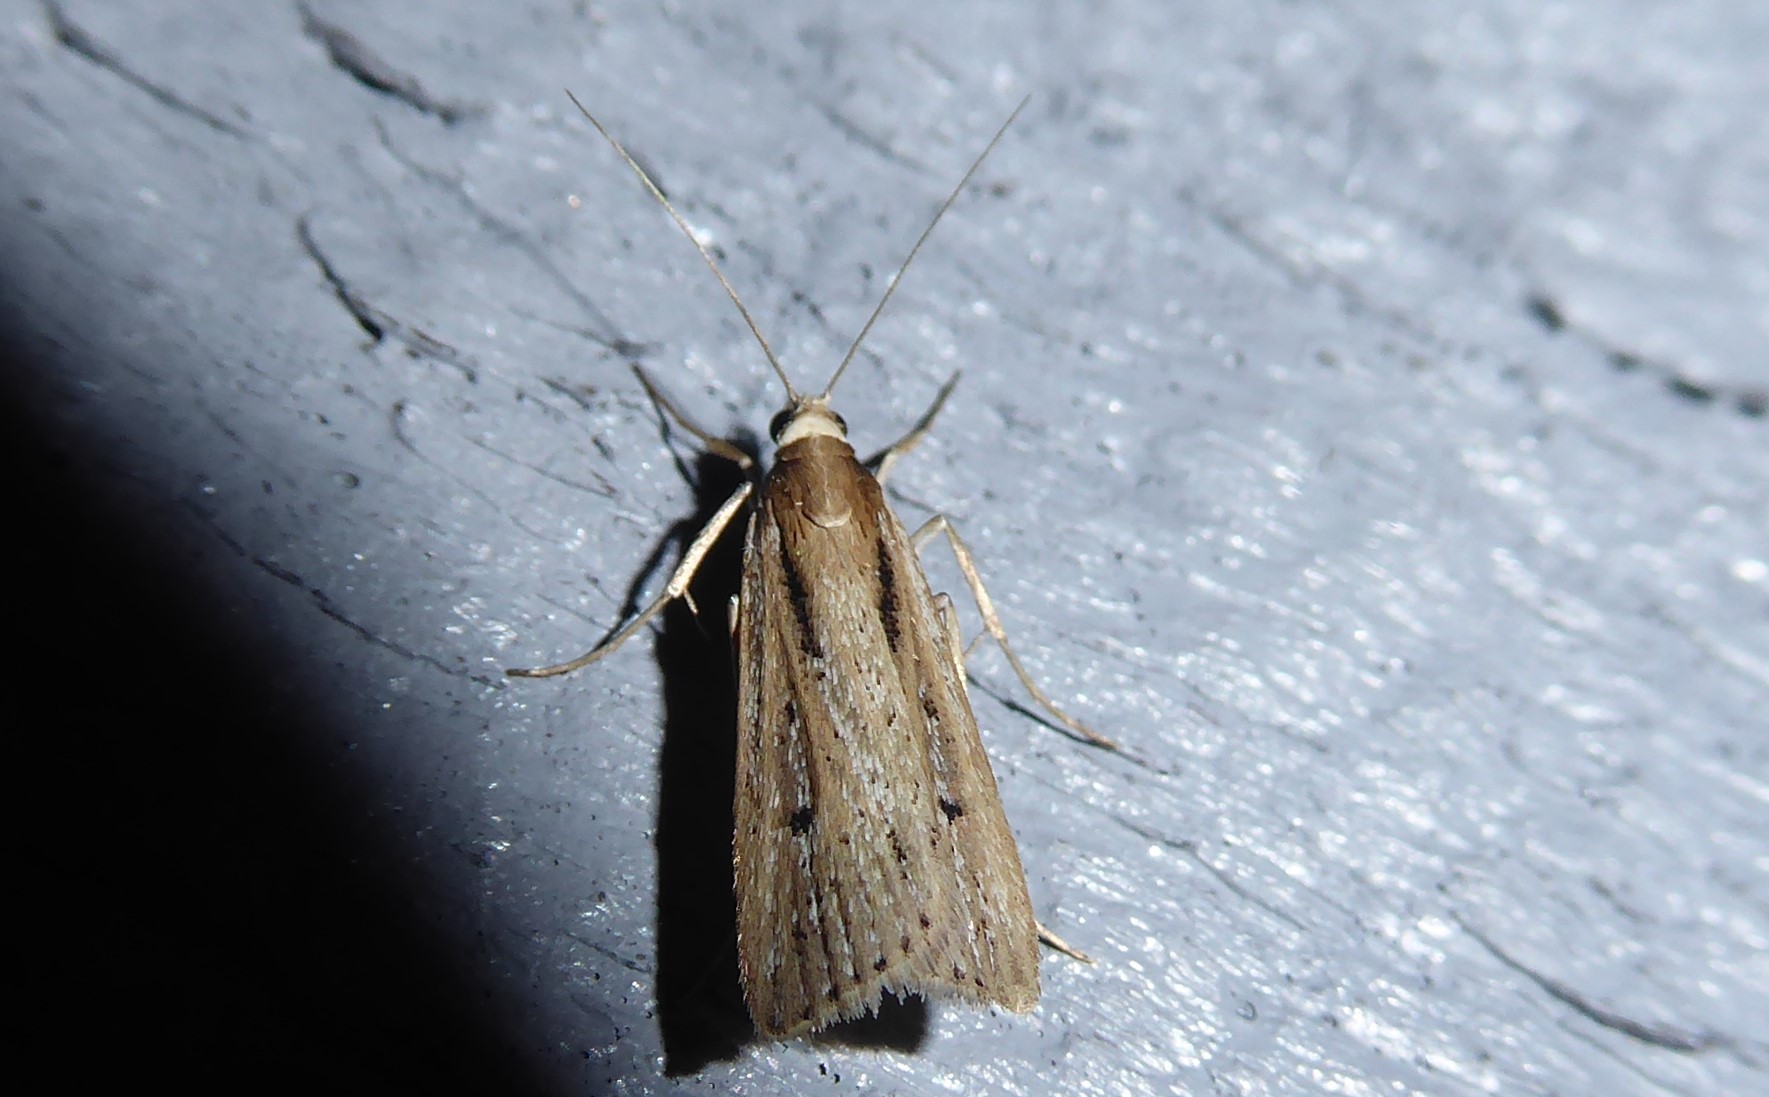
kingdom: Animalia
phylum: Arthropoda
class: Insecta
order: Lepidoptera
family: Crambidae
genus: Eudonia
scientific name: Eudonia sabulosella
